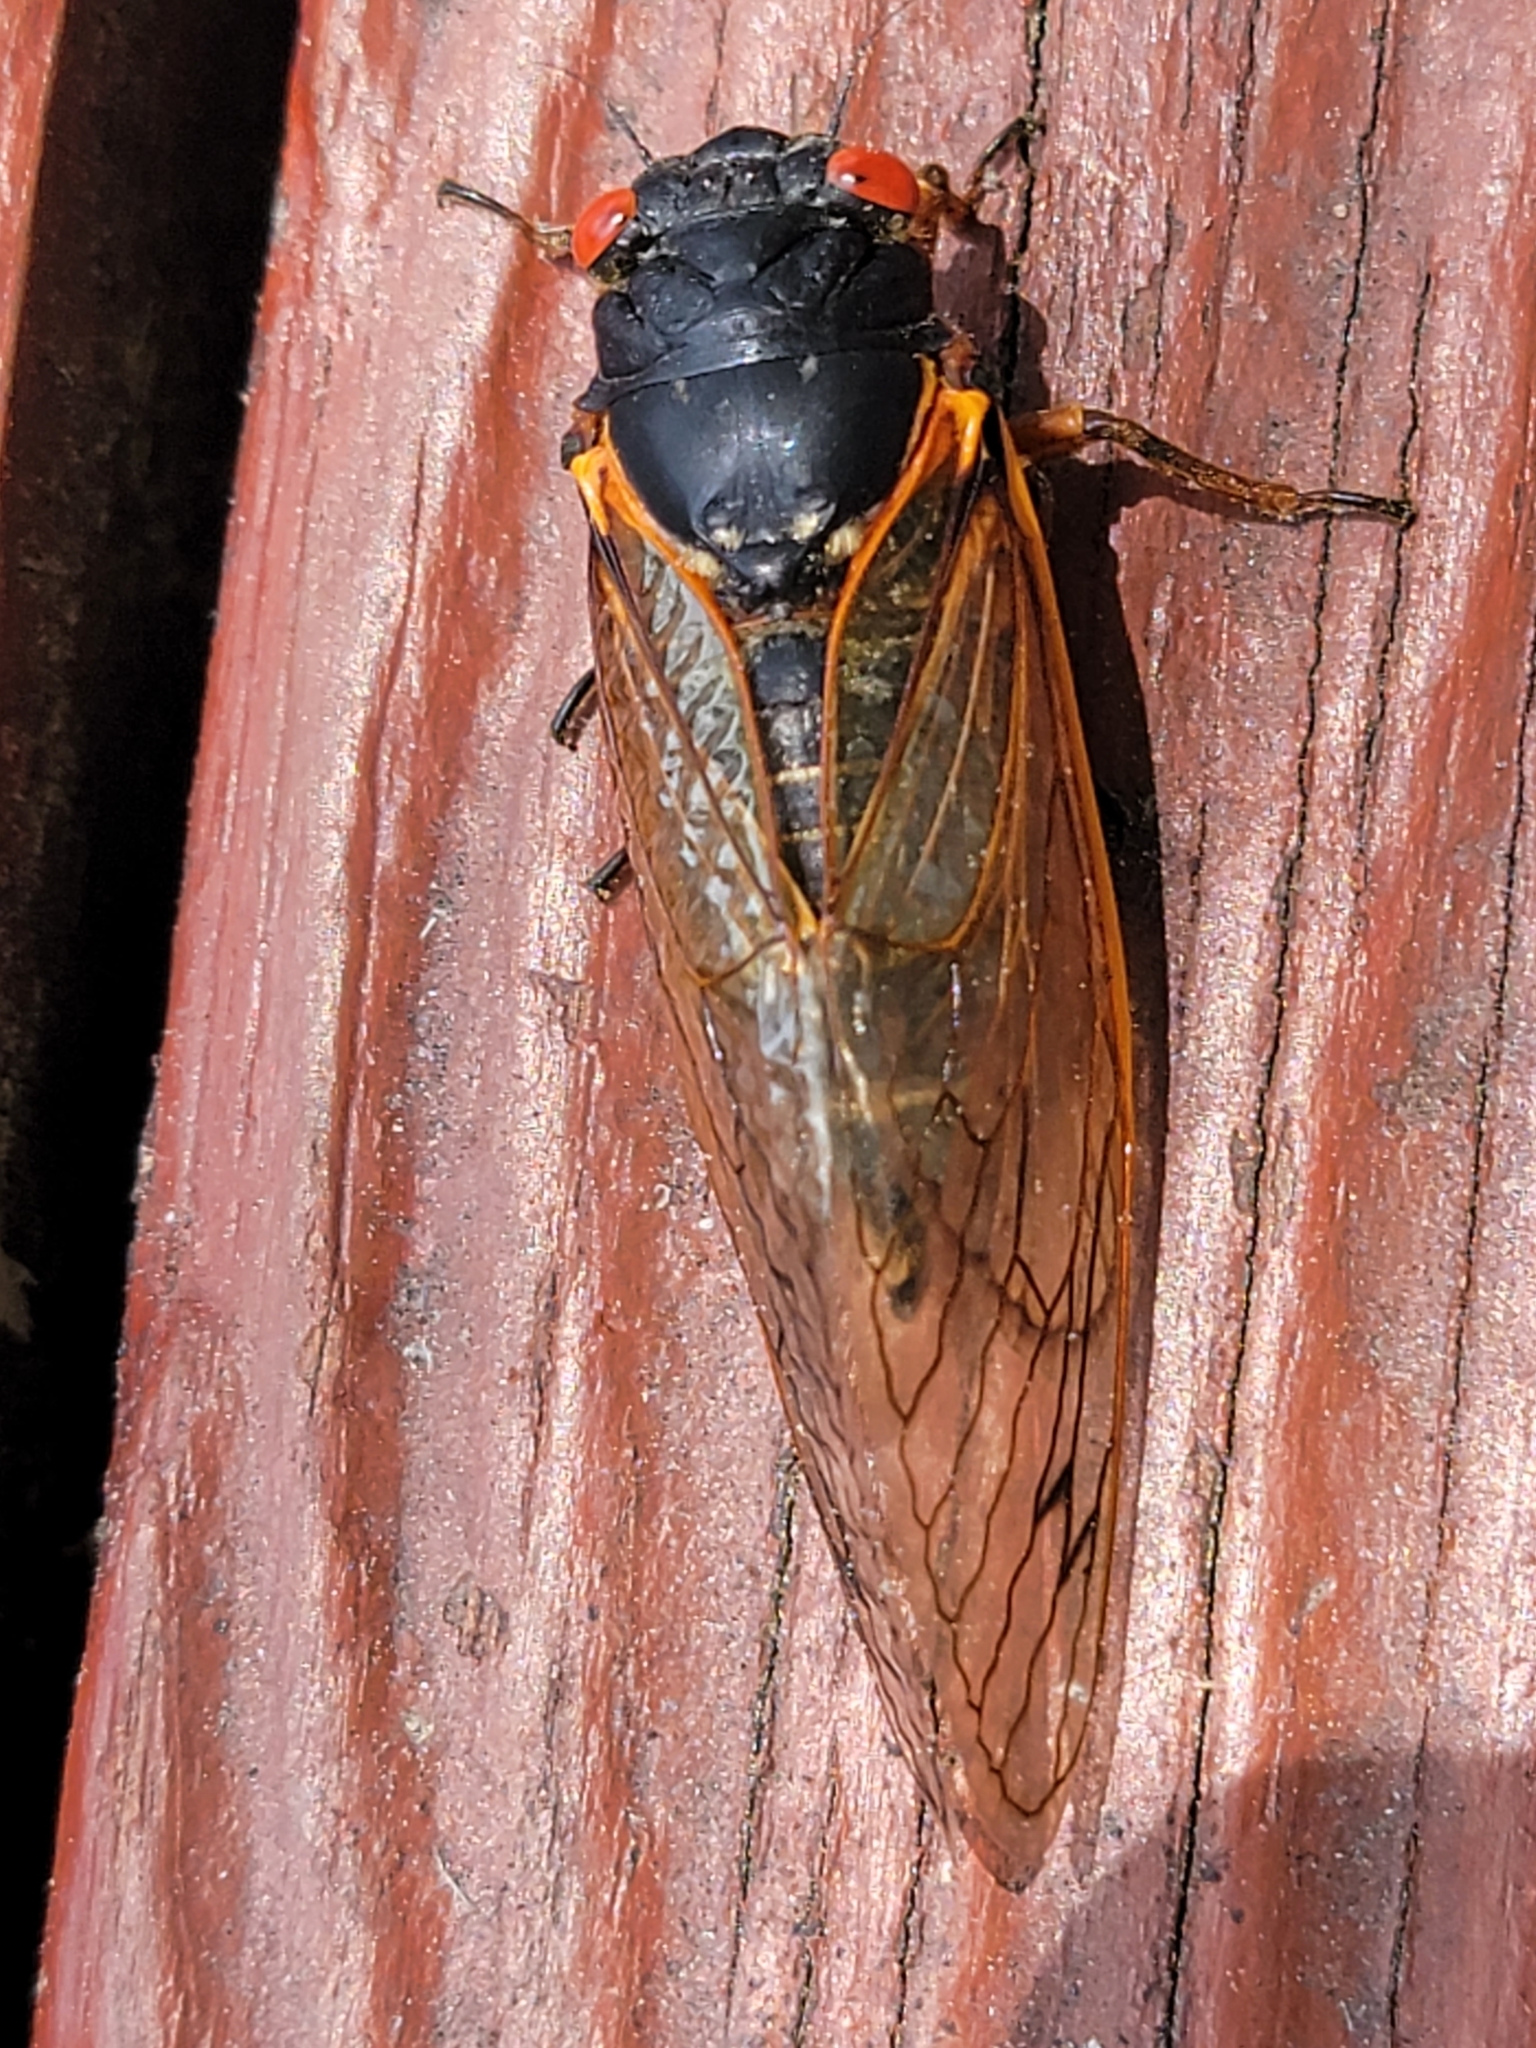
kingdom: Animalia
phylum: Arthropoda
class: Insecta
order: Hemiptera
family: Cicadidae
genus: Magicicada
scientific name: Magicicada
